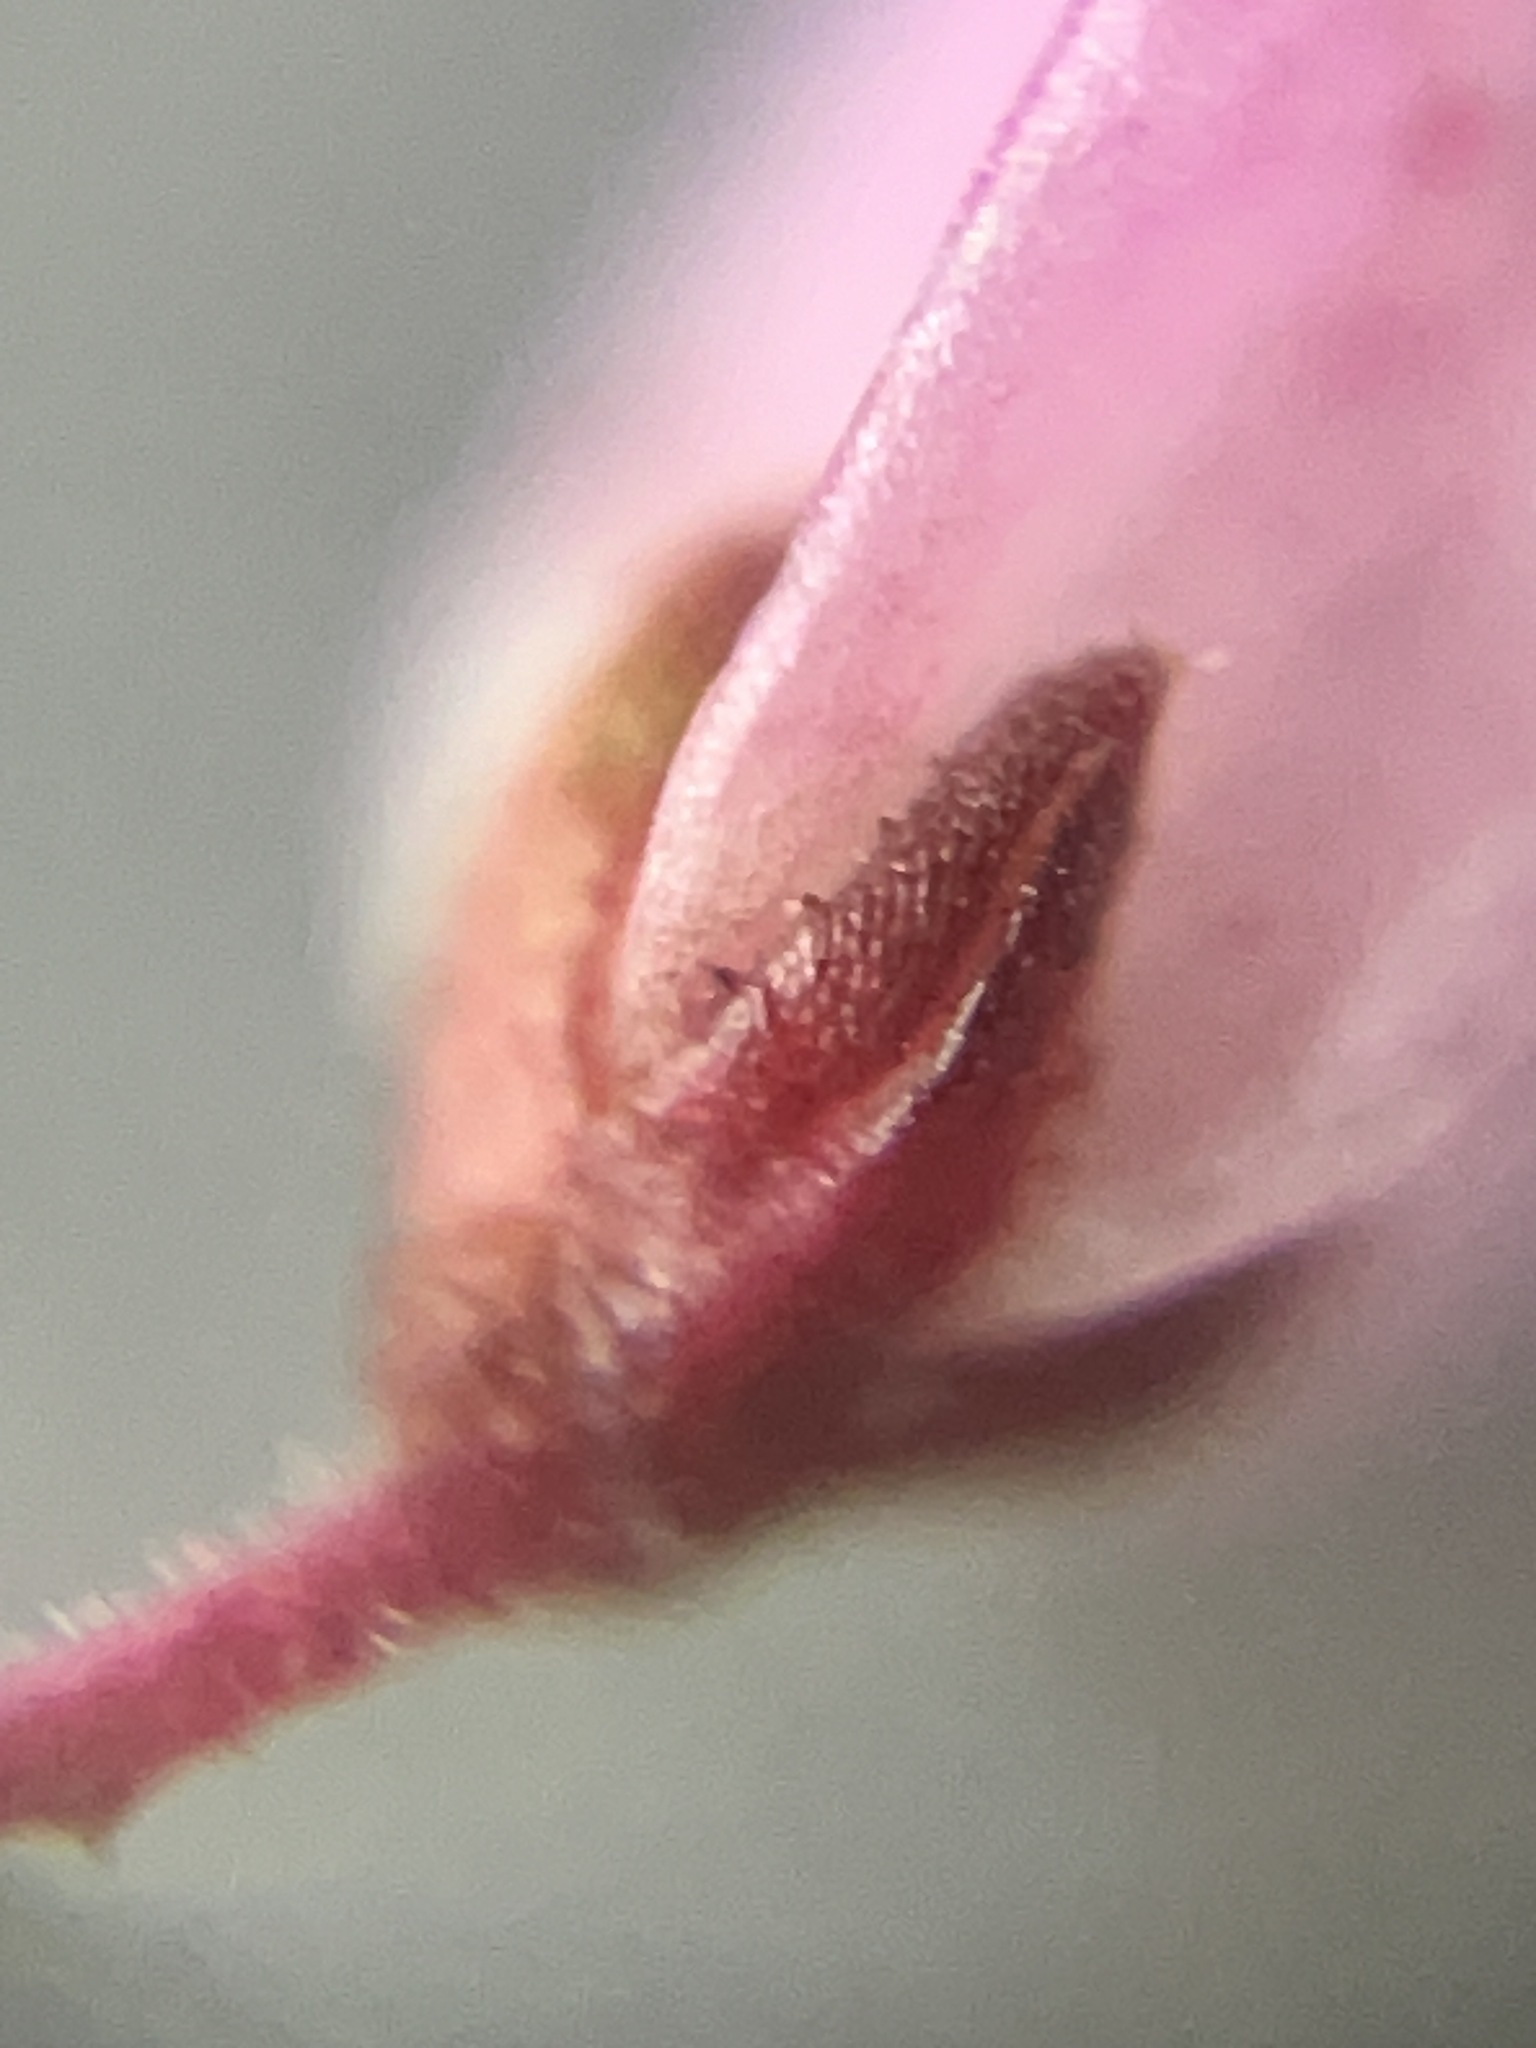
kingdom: Plantae
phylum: Tracheophyta
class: Magnoliopsida
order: Ericales
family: Ericaceae
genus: Erica
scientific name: Erica nudiflora
